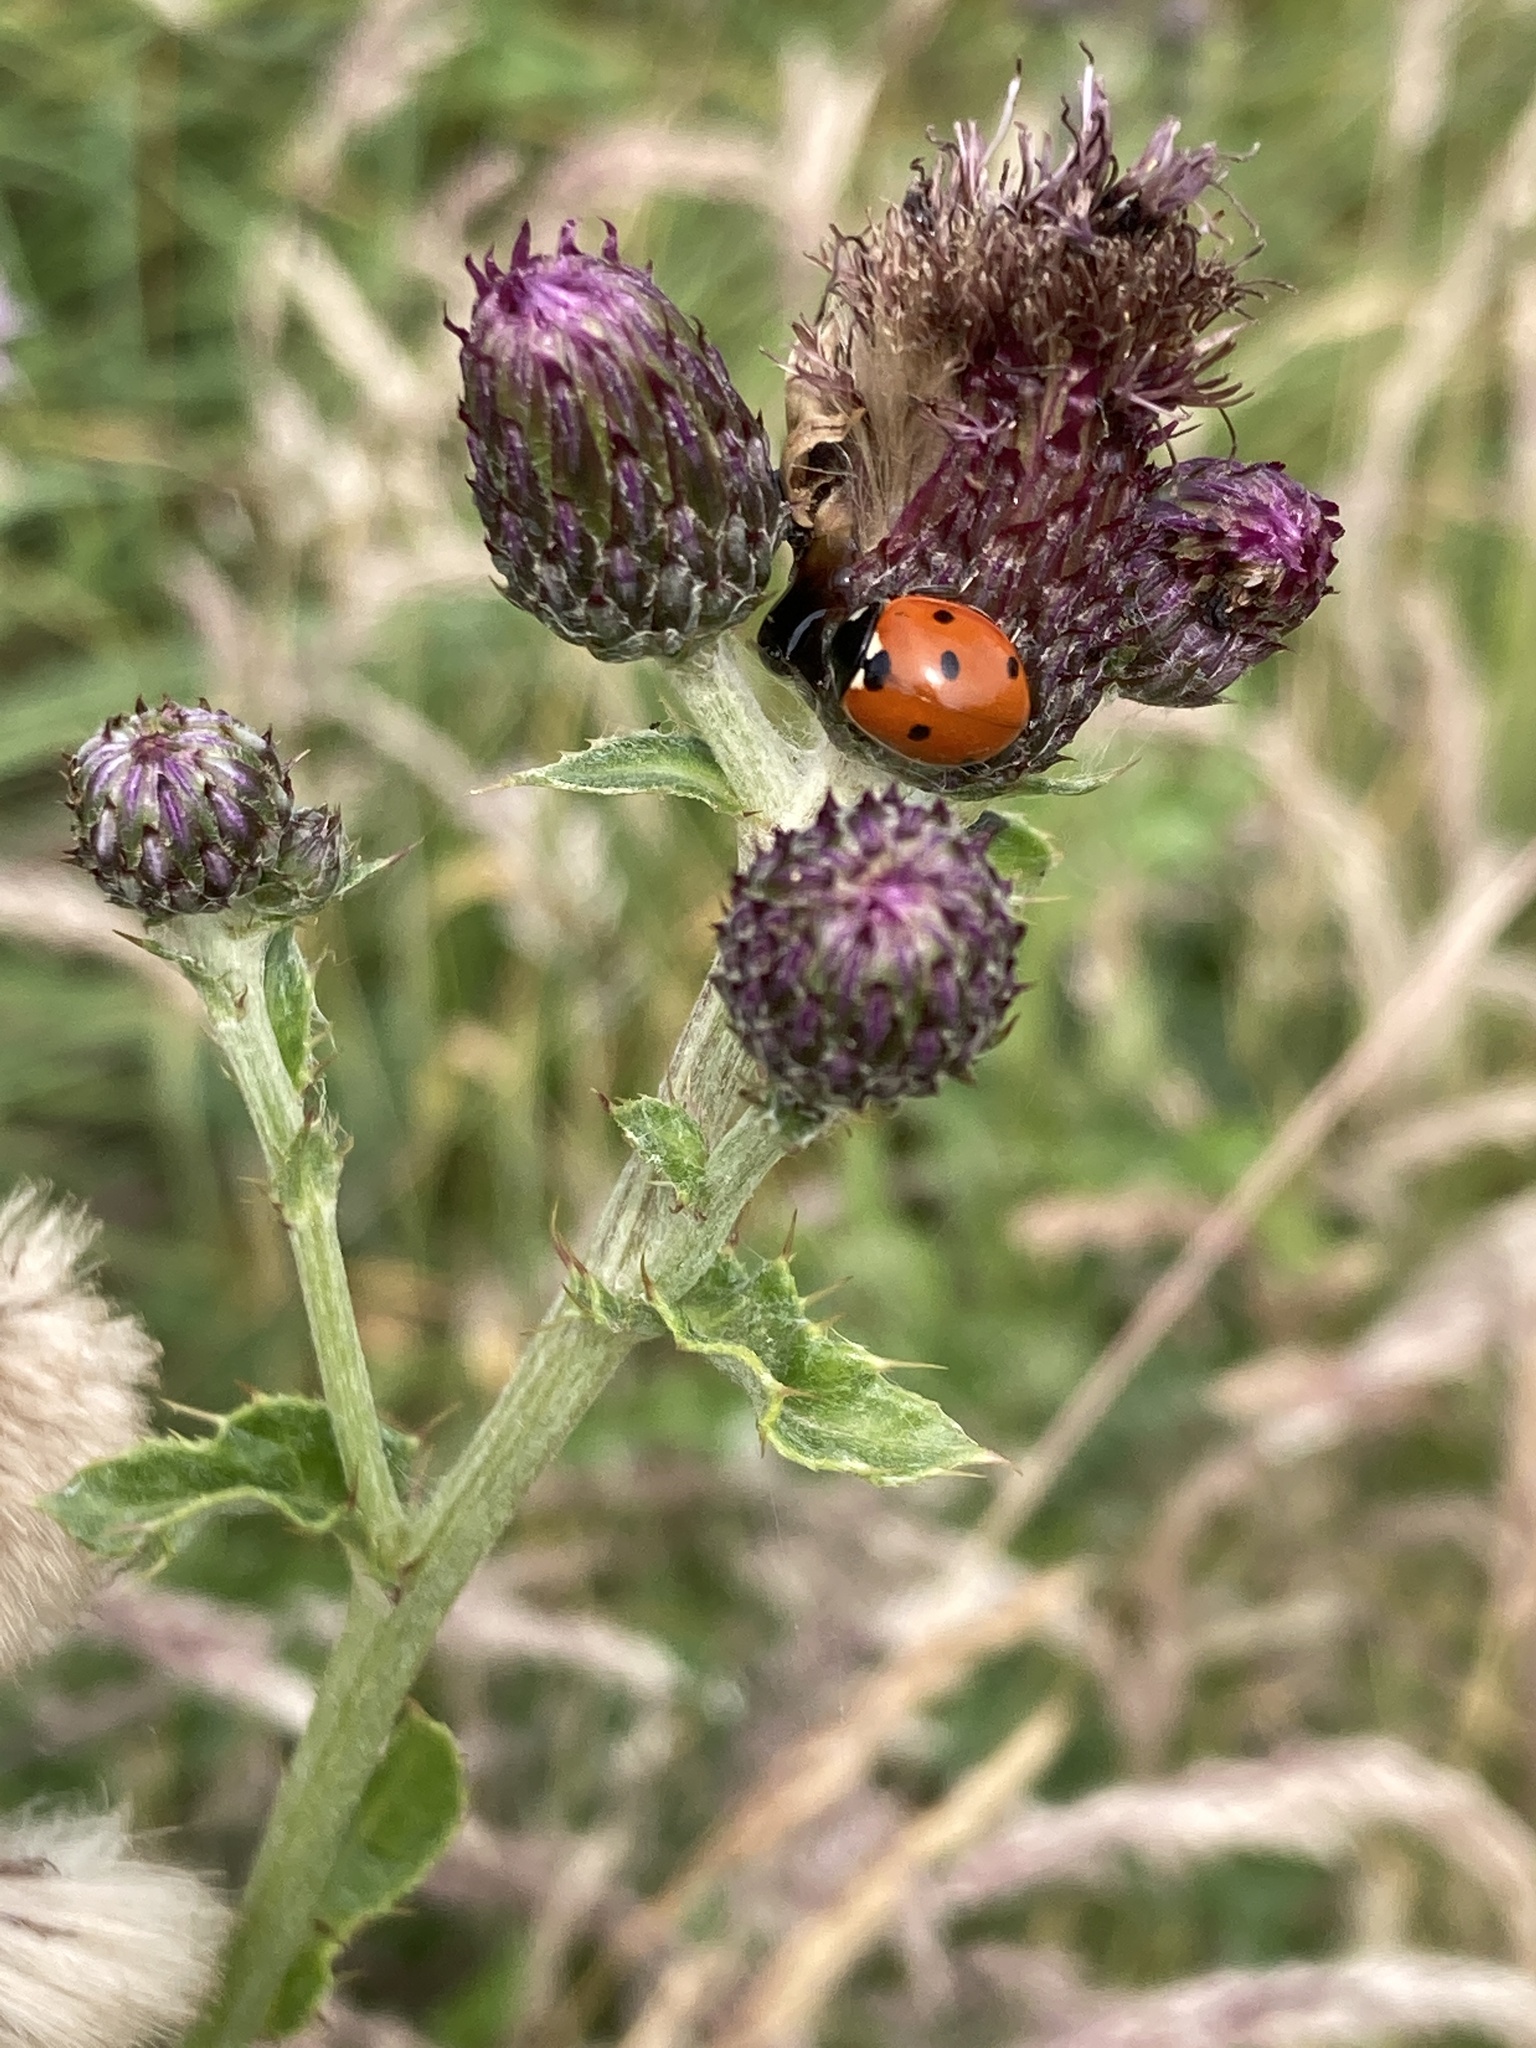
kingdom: Animalia
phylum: Arthropoda
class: Insecta
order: Coleoptera
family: Coccinellidae
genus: Coccinella
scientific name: Coccinella septempunctata
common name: Sevenspotted lady beetle
